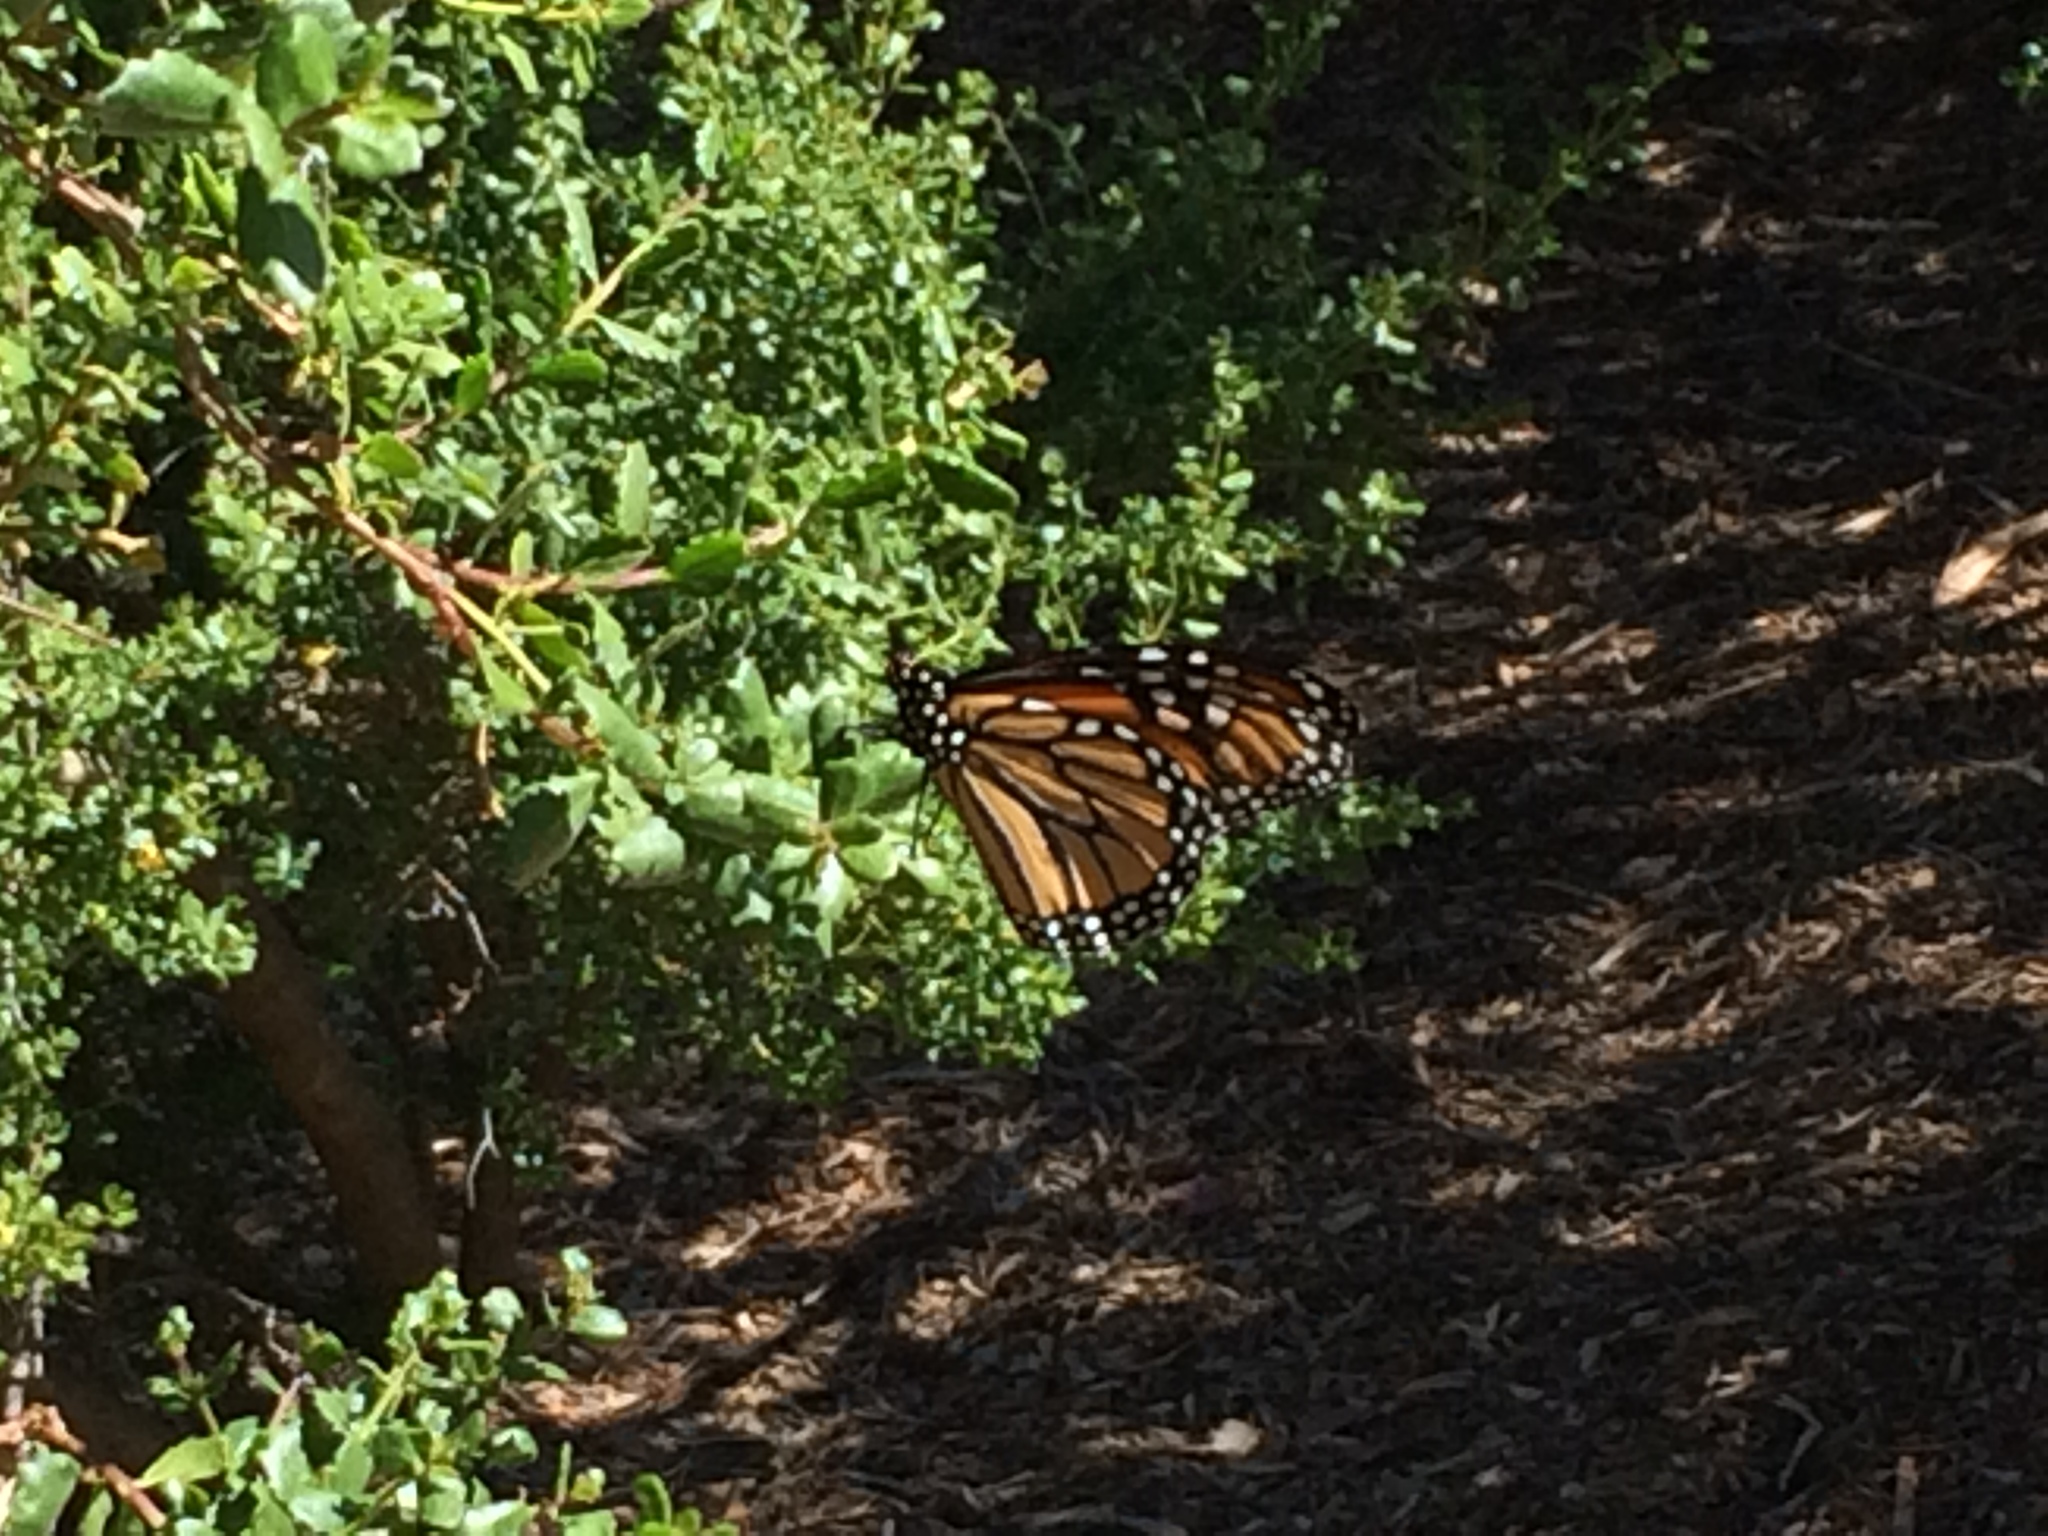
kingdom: Animalia
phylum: Arthropoda
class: Insecta
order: Lepidoptera
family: Nymphalidae
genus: Danaus
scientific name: Danaus plexippus
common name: Monarch
